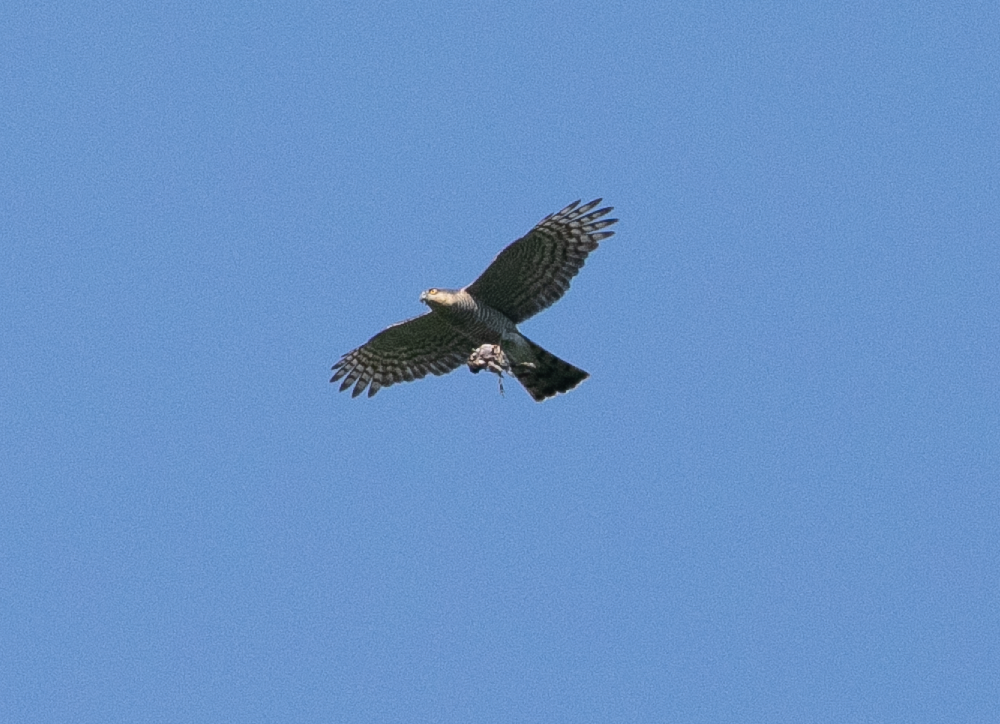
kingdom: Animalia
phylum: Chordata
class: Aves
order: Accipitriformes
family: Accipitridae
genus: Accipiter
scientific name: Accipiter nisus
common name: Eurasian sparrowhawk
